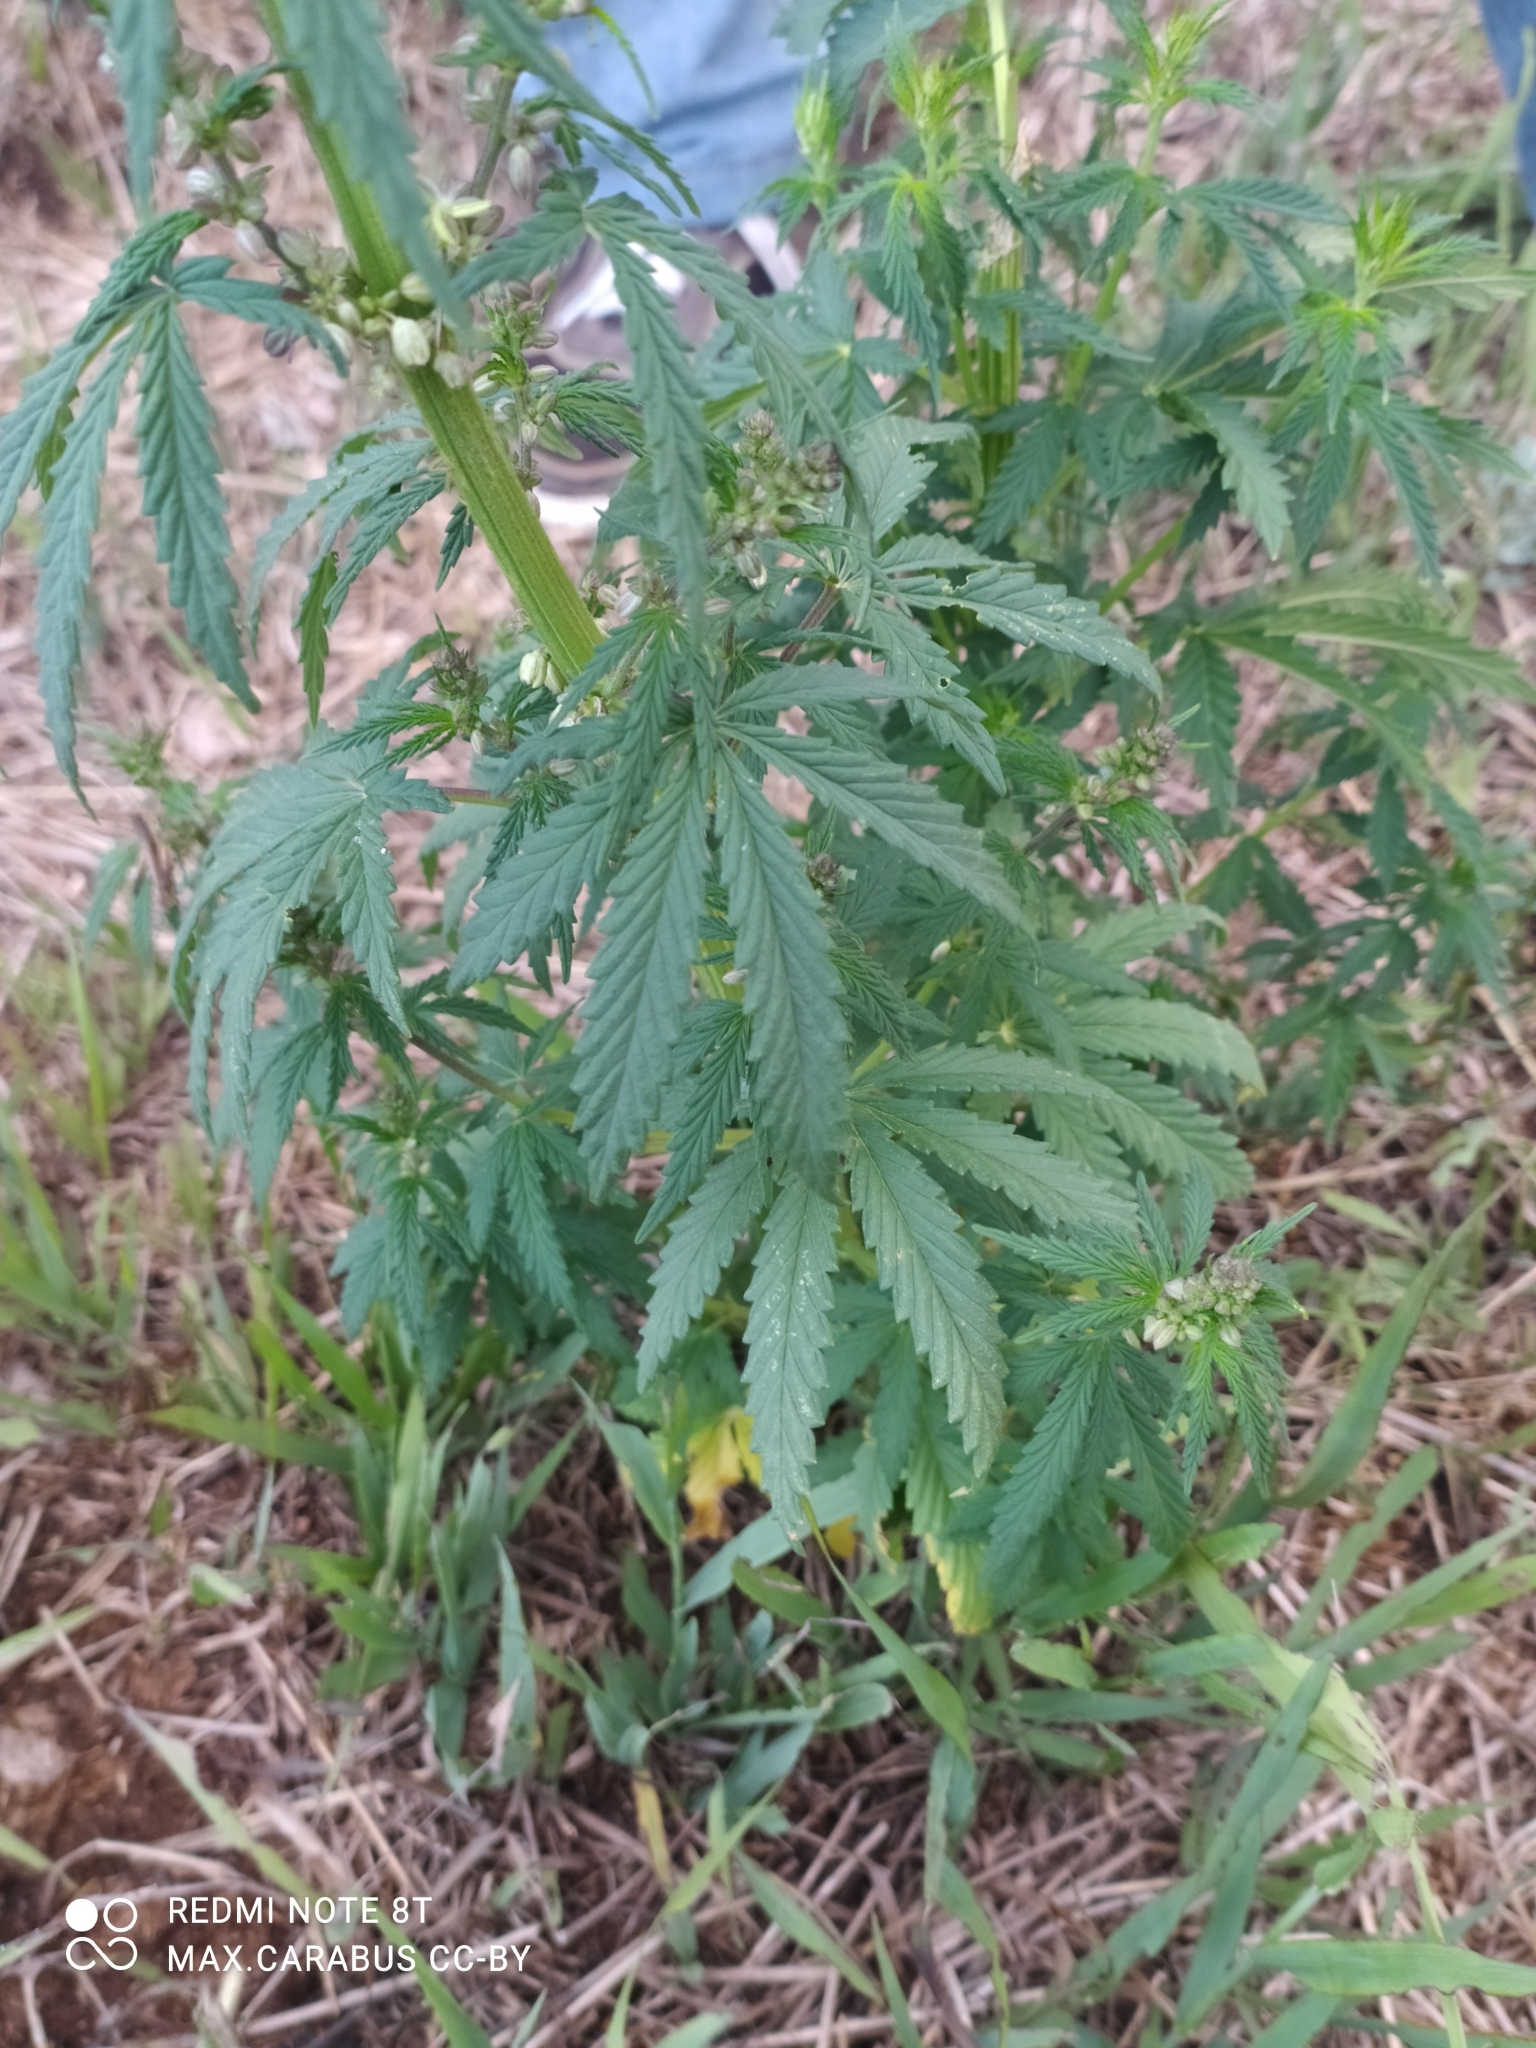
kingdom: Plantae
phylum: Tracheophyta
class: Magnoliopsida
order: Rosales
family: Cannabaceae
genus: Cannabis
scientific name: Cannabis sativa
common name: Hemp
